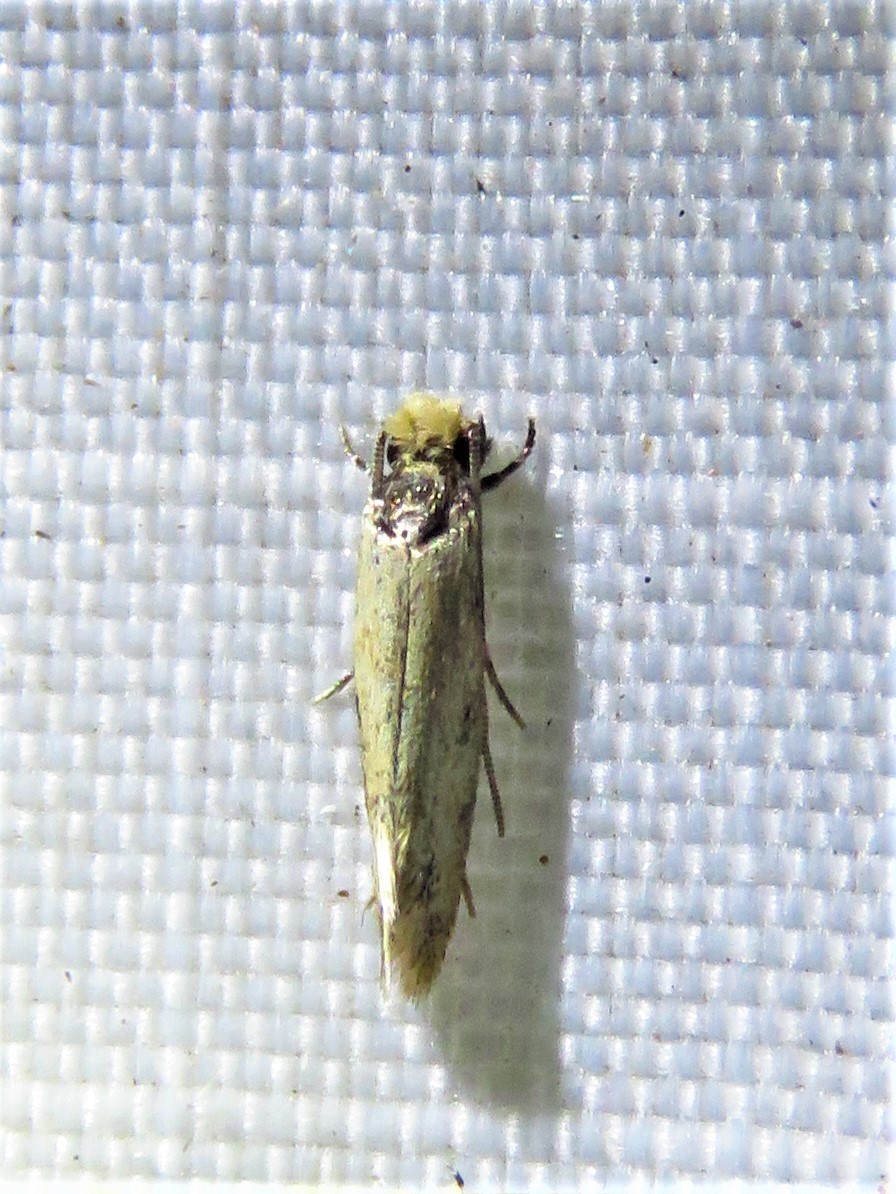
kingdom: Animalia
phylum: Arthropoda
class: Insecta
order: Lepidoptera
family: Meessiidae
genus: Homostinea
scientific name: Homostinea curviliniella
